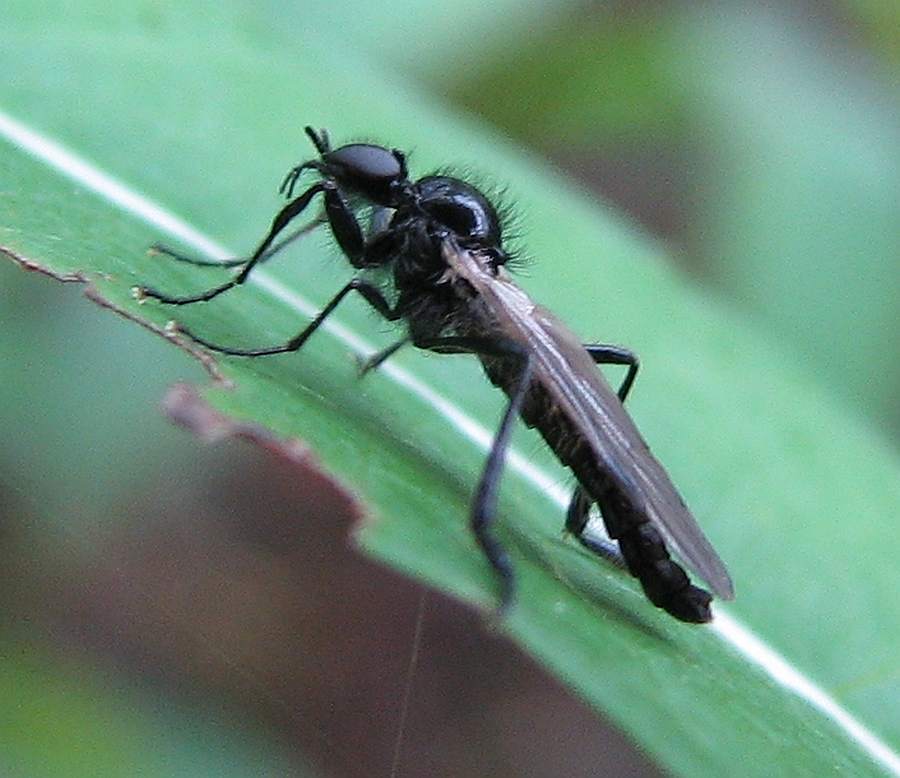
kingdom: Animalia
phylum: Arthropoda
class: Insecta
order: Diptera
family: Bibionidae
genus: Bibio
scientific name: Bibio slossonae
